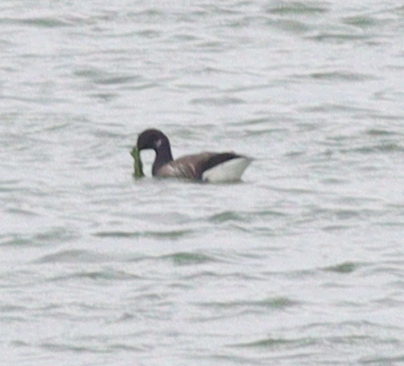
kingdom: Animalia
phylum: Chordata
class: Aves
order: Anseriformes
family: Anatidae
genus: Branta
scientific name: Branta bernicla
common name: Brant goose
